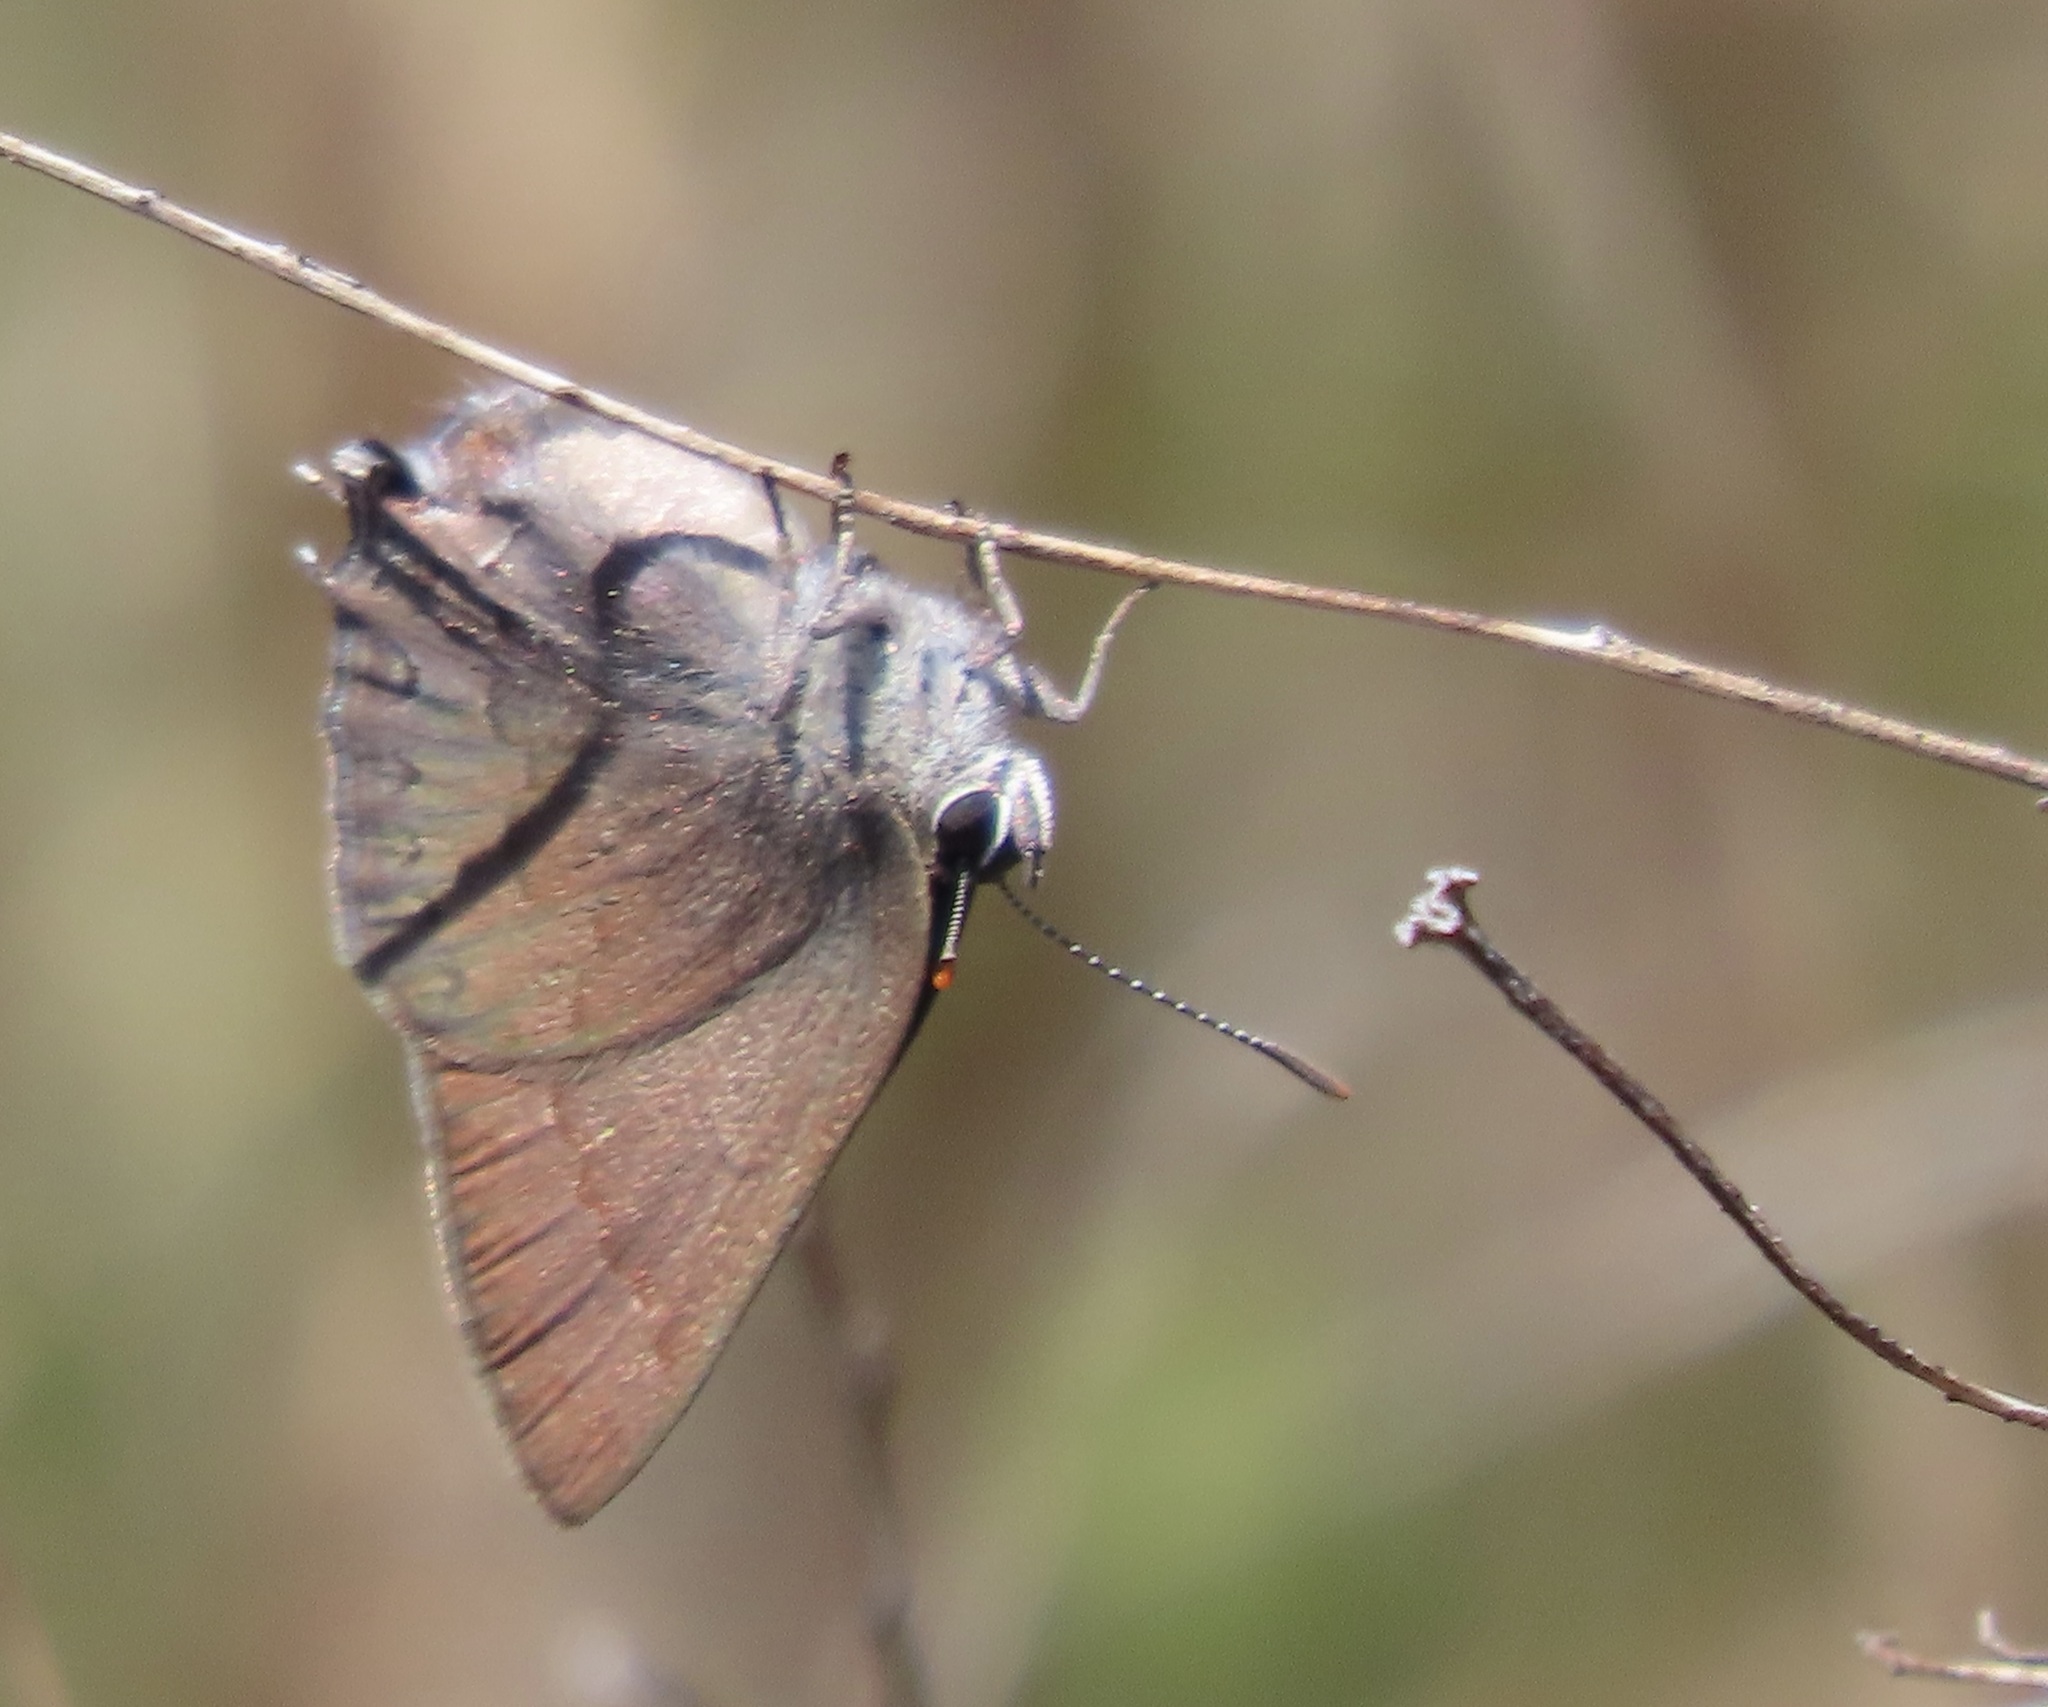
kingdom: Animalia
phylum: Arthropoda
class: Insecta
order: Lepidoptera
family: Lycaenidae
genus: Strymon
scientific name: Strymon saepium
